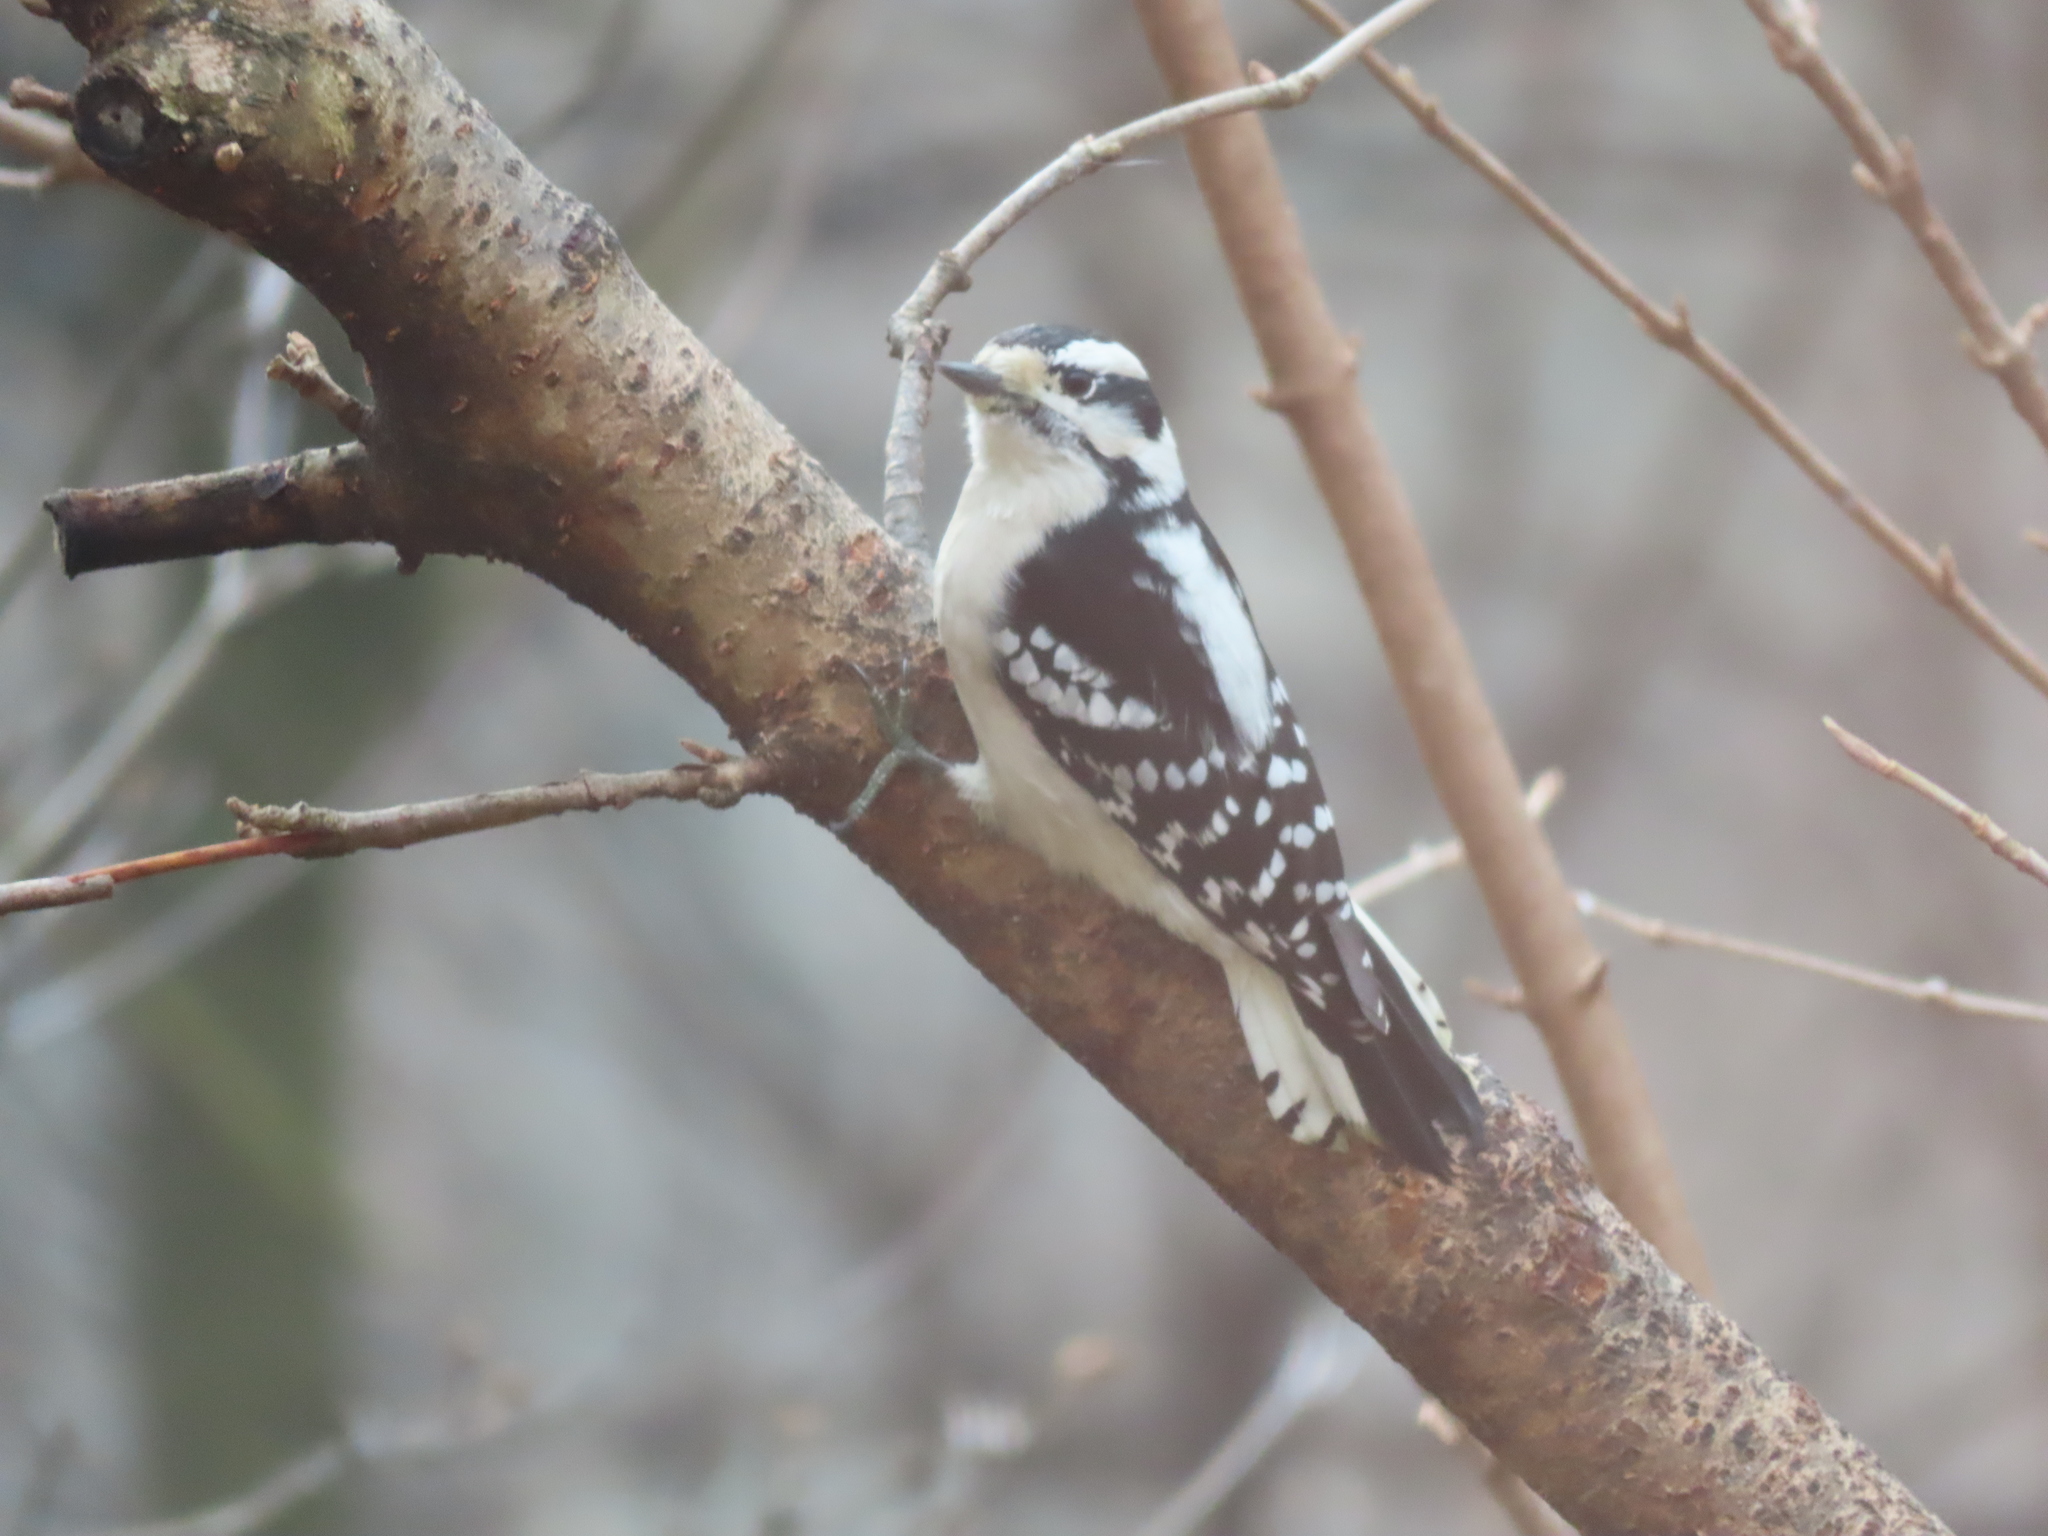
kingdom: Animalia
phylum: Chordata
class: Aves
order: Piciformes
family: Picidae
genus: Dryobates
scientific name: Dryobates pubescens
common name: Downy woodpecker
